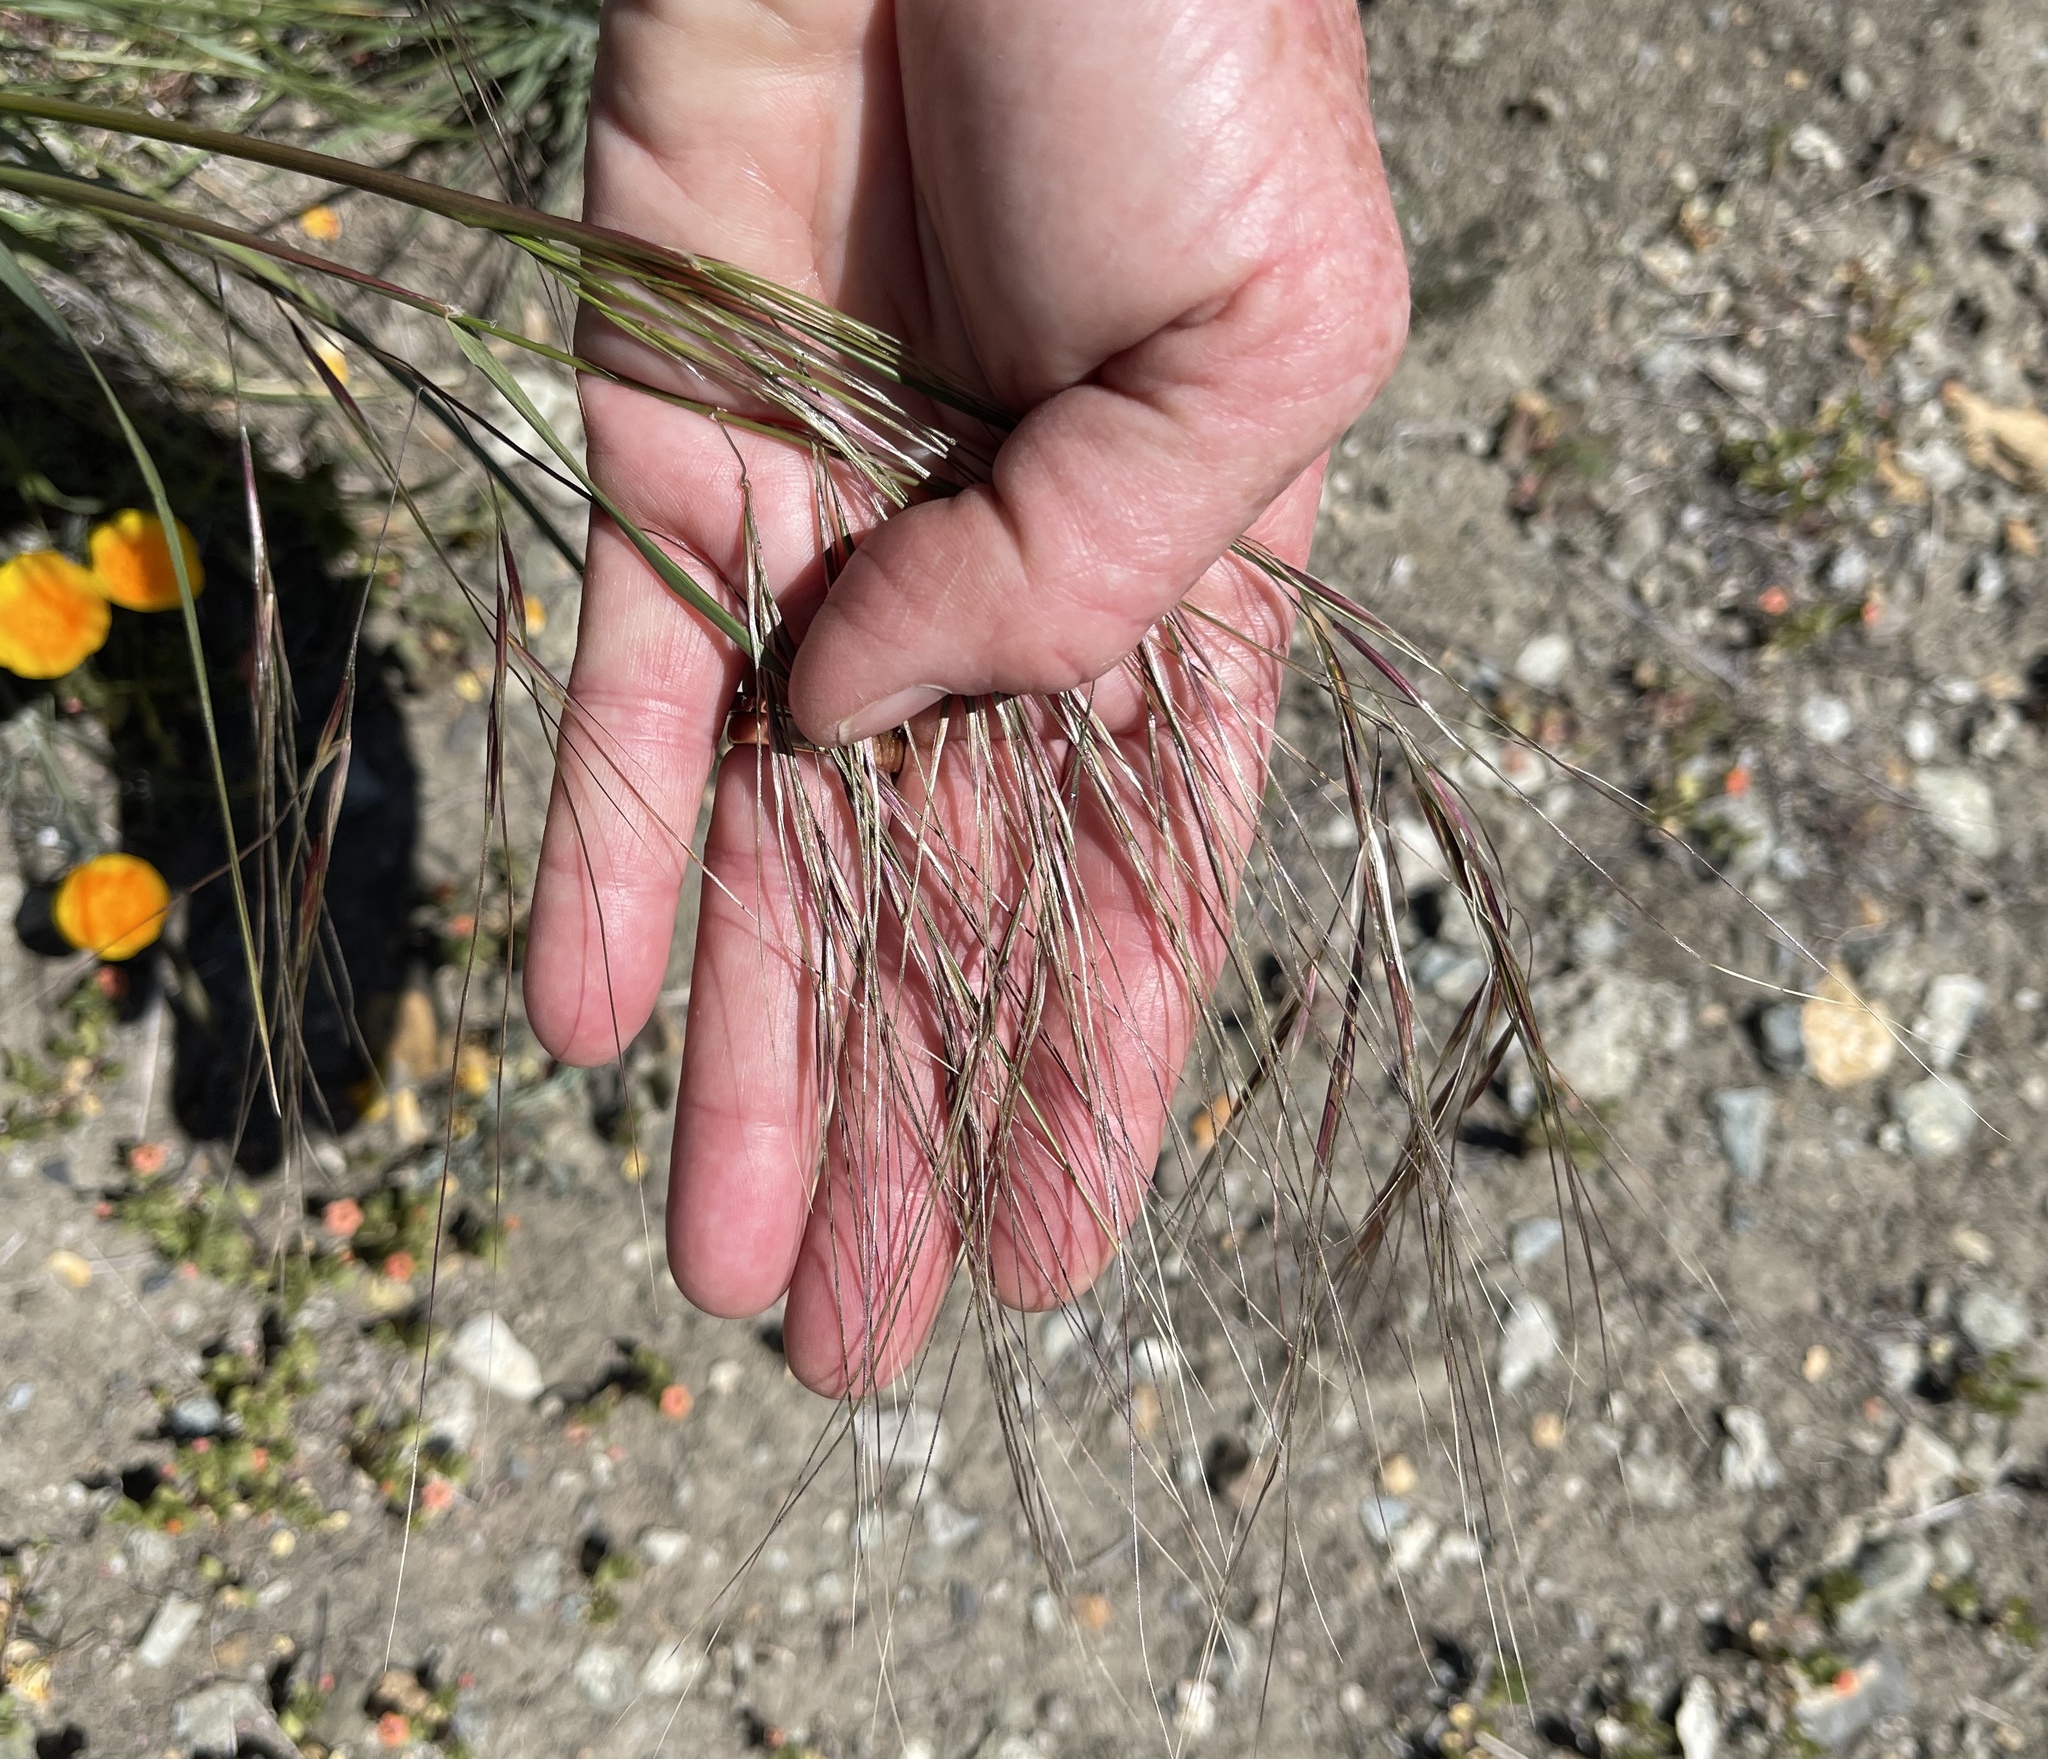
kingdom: Plantae
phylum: Tracheophyta
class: Liliopsida
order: Poales
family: Poaceae
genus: Nassella
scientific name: Nassella pulchra
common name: Purple needlegrass
